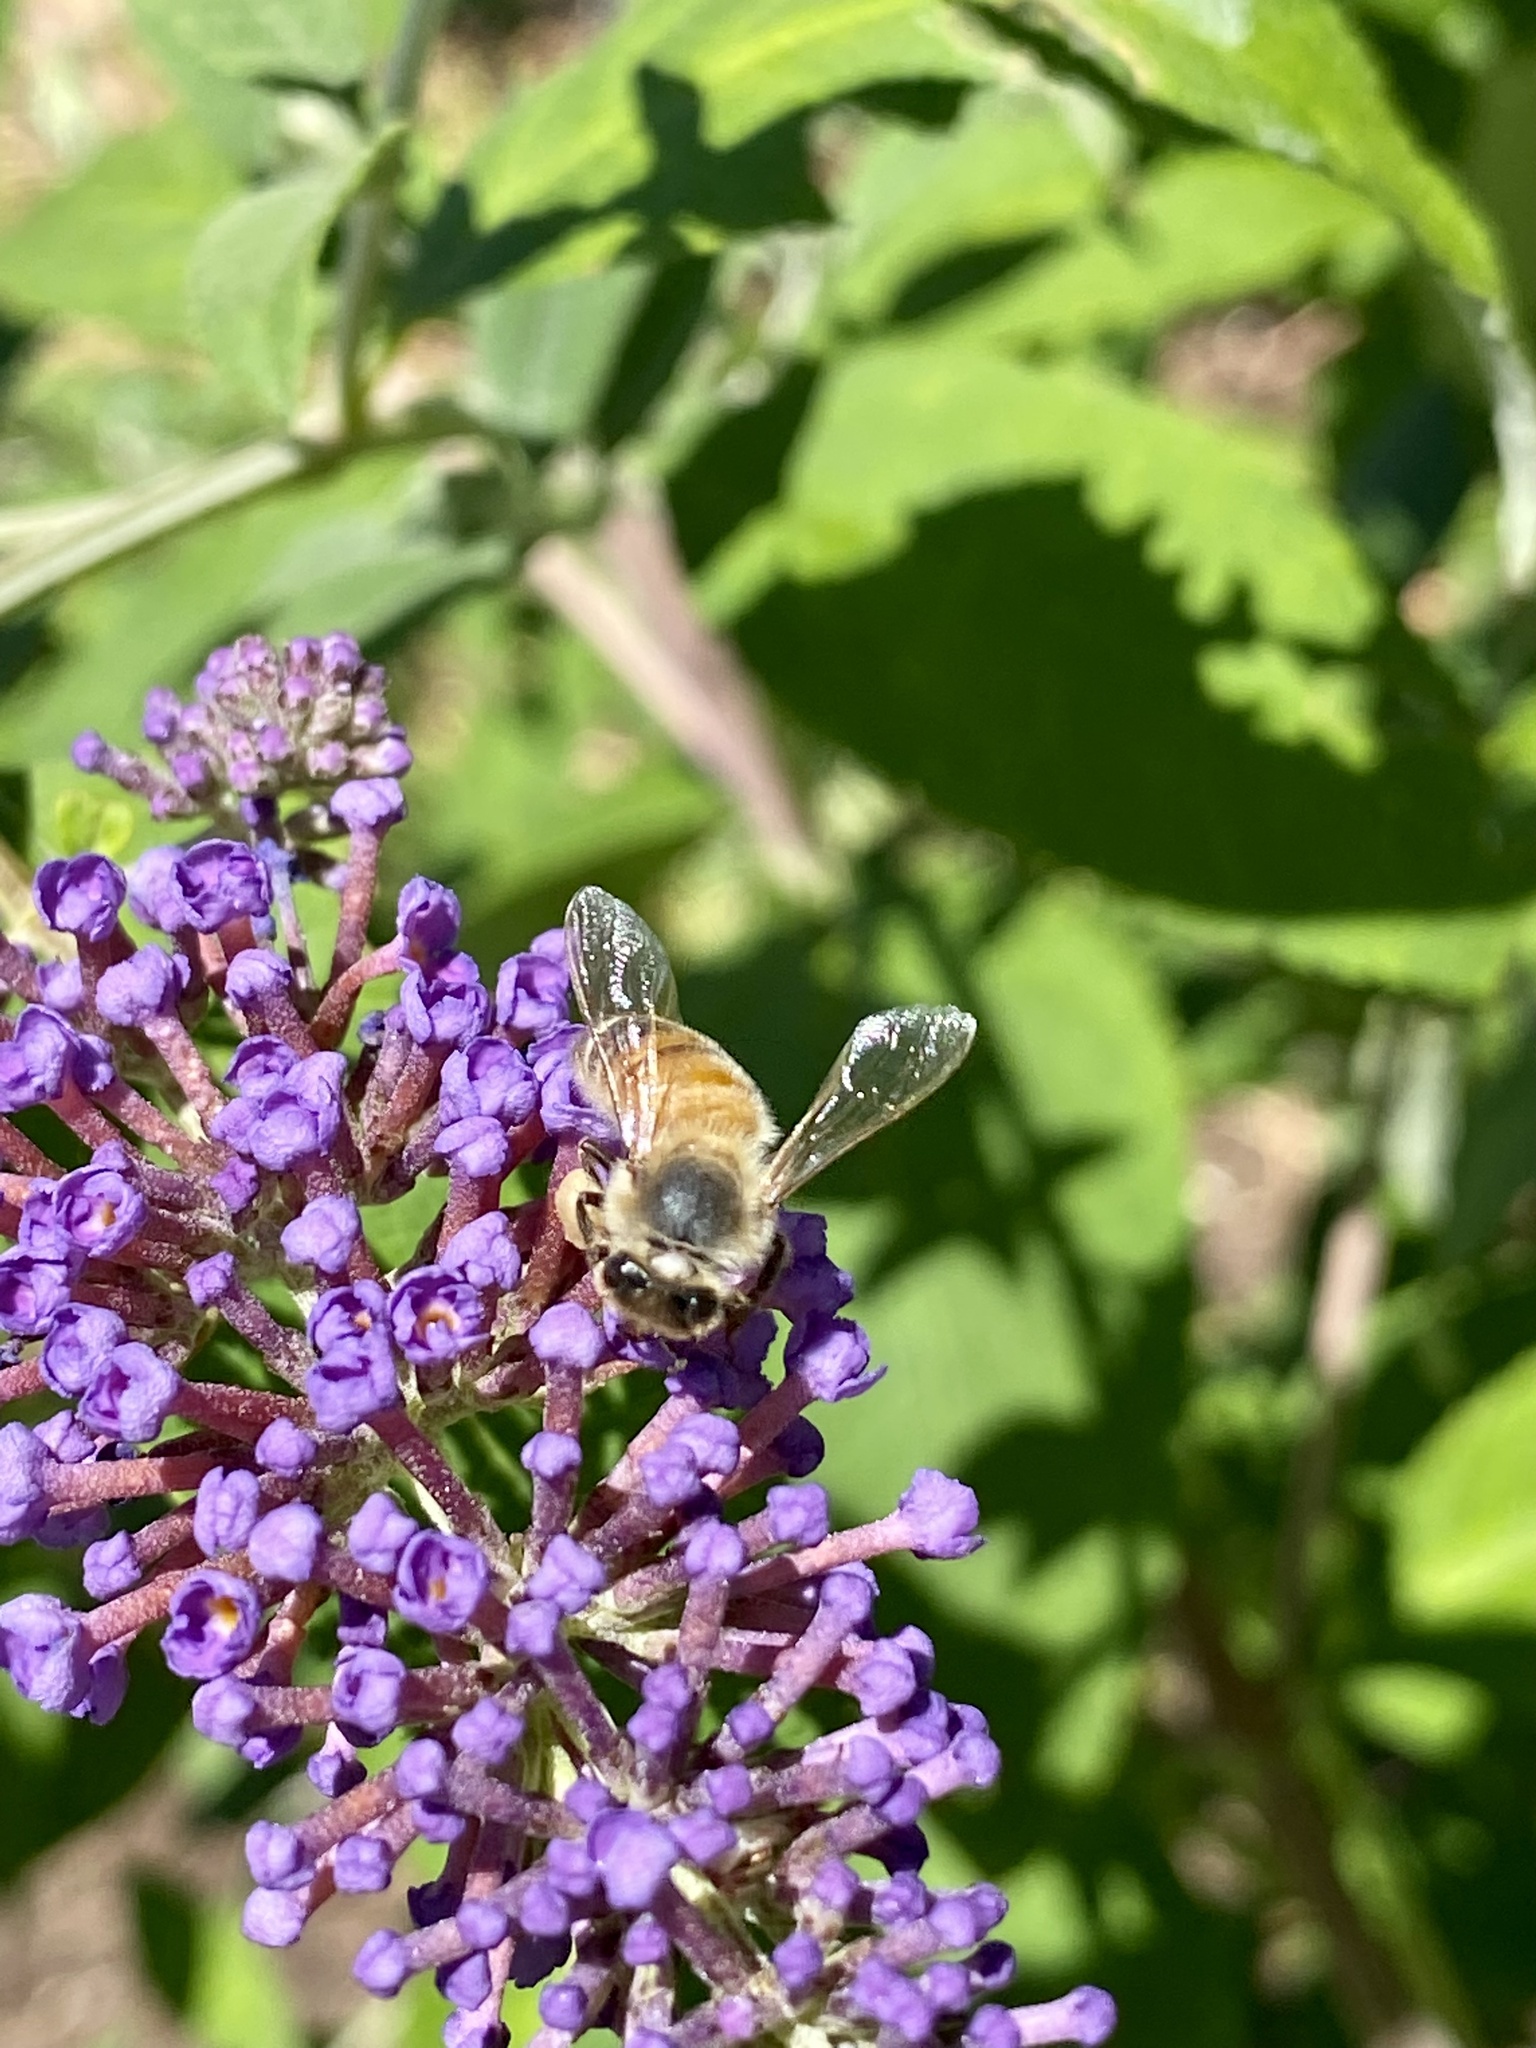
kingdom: Animalia
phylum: Arthropoda
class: Insecta
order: Hymenoptera
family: Apidae
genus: Apis
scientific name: Apis mellifera
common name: Honey bee
